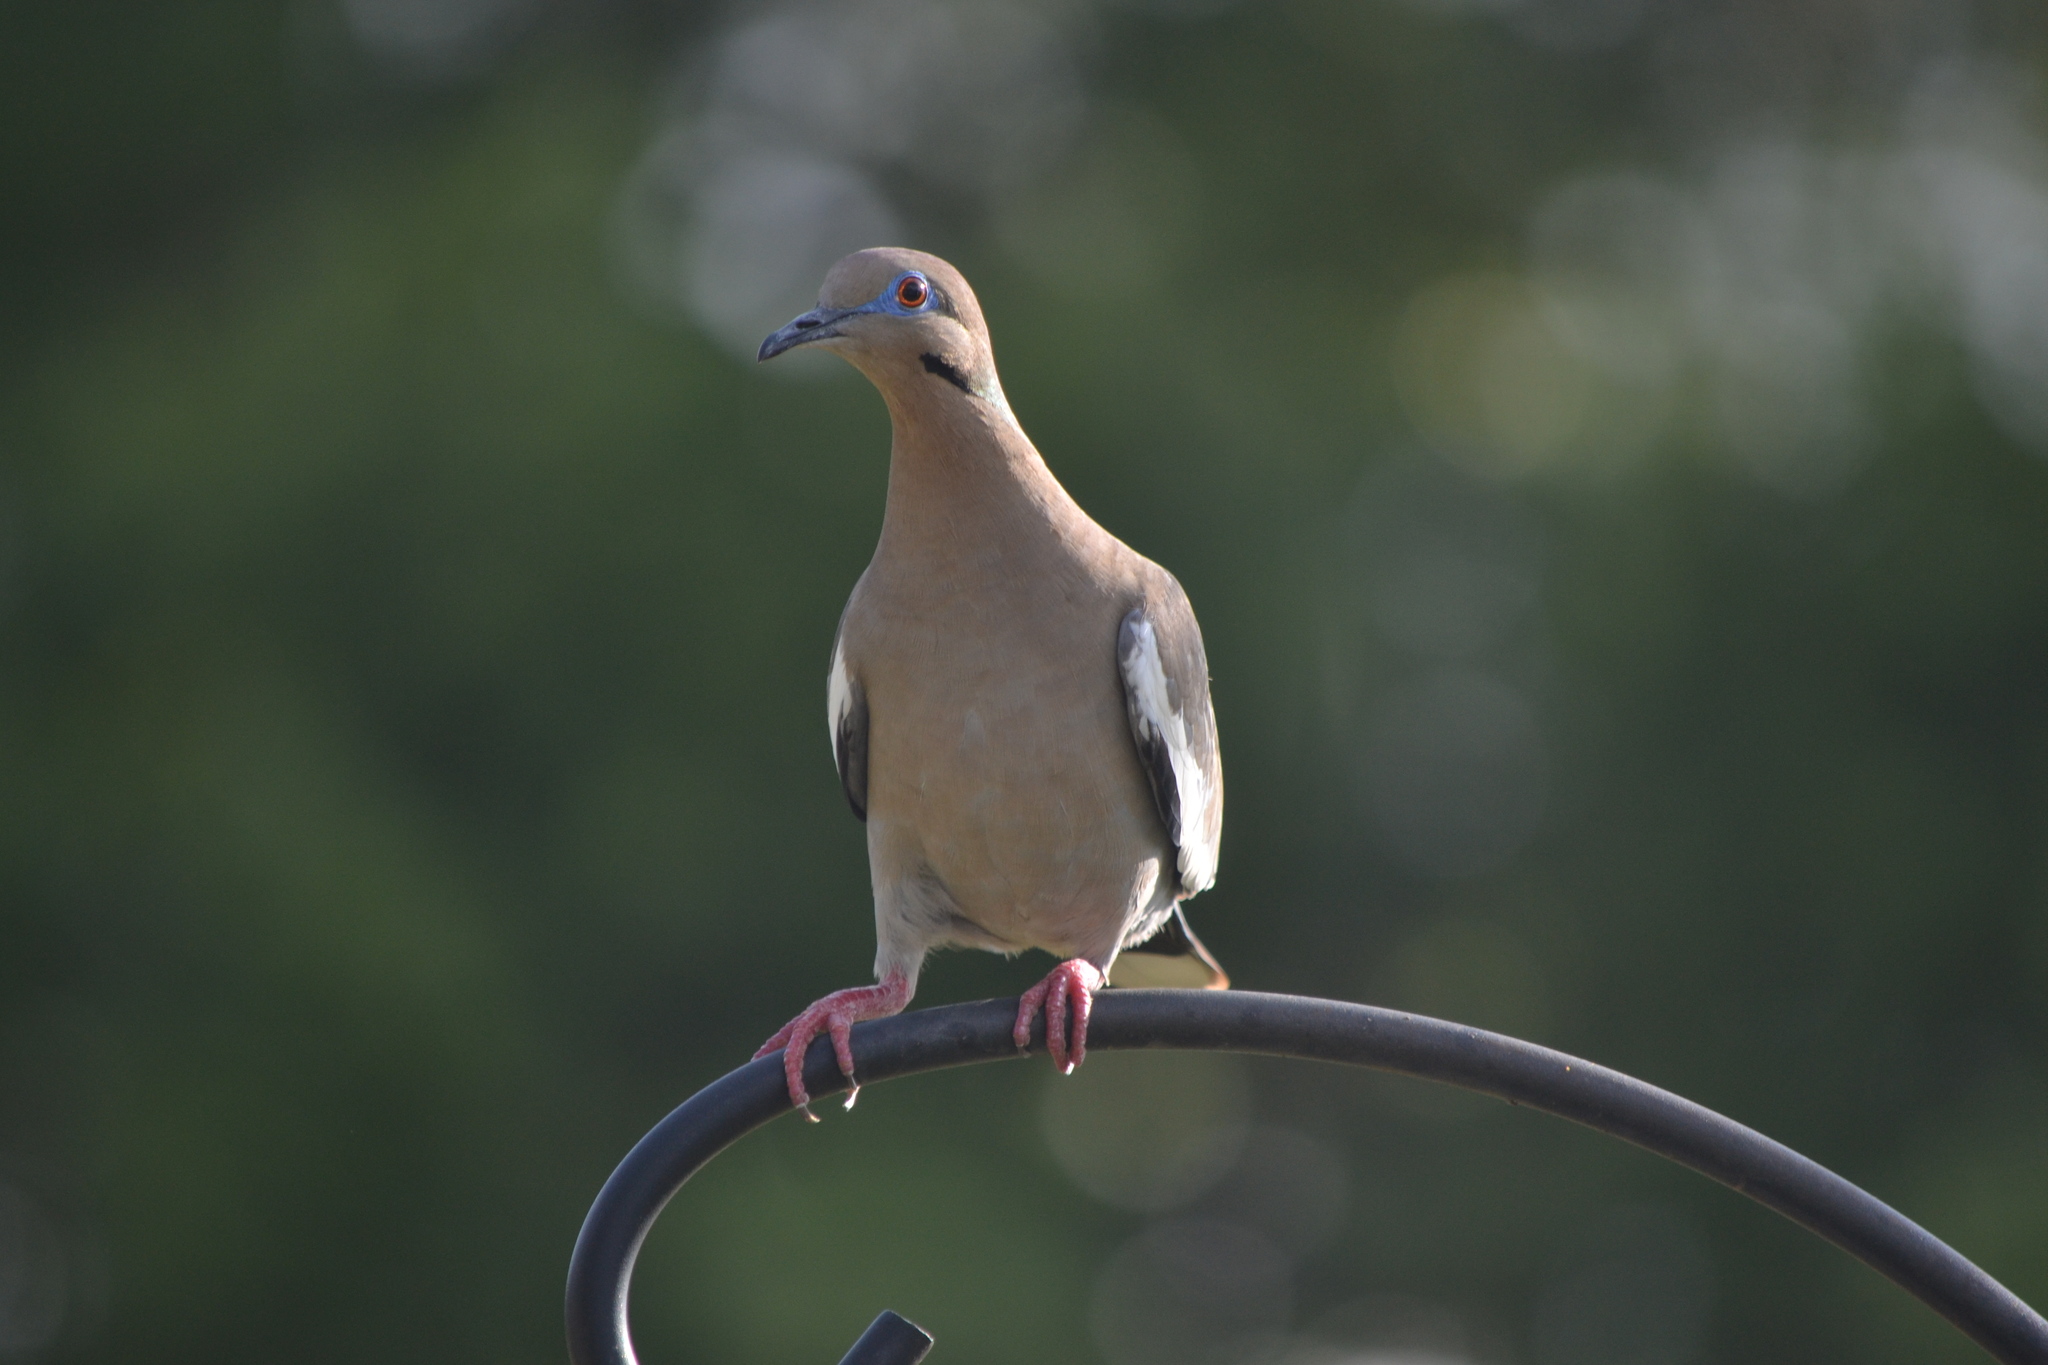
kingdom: Animalia
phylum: Chordata
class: Aves
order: Columbiformes
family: Columbidae
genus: Zenaida
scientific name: Zenaida asiatica
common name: White-winged dove
